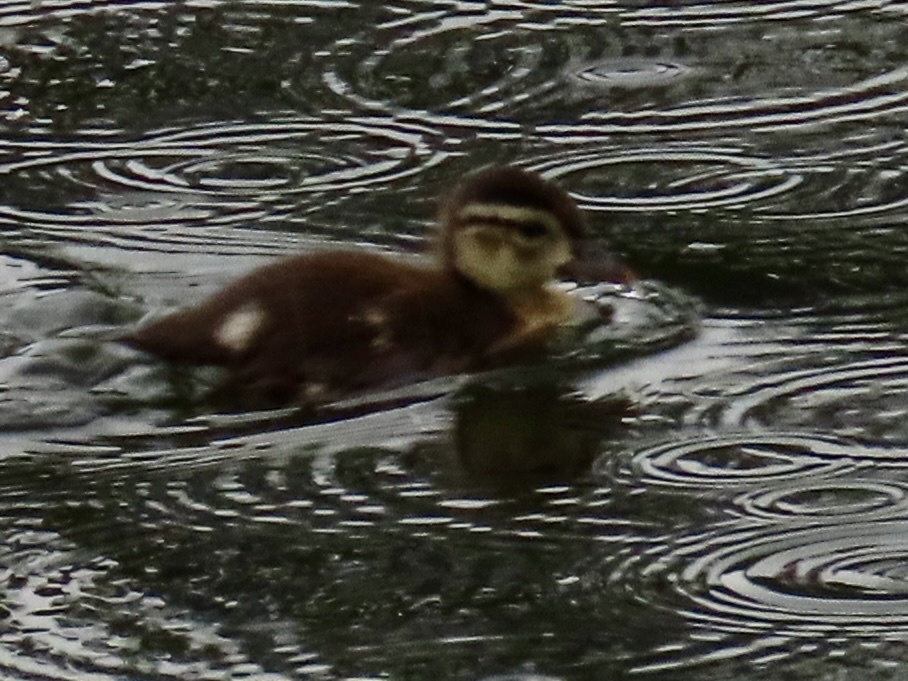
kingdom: Animalia
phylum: Chordata
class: Aves
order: Anseriformes
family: Anatidae
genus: Aix
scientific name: Aix sponsa
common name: Wood duck
